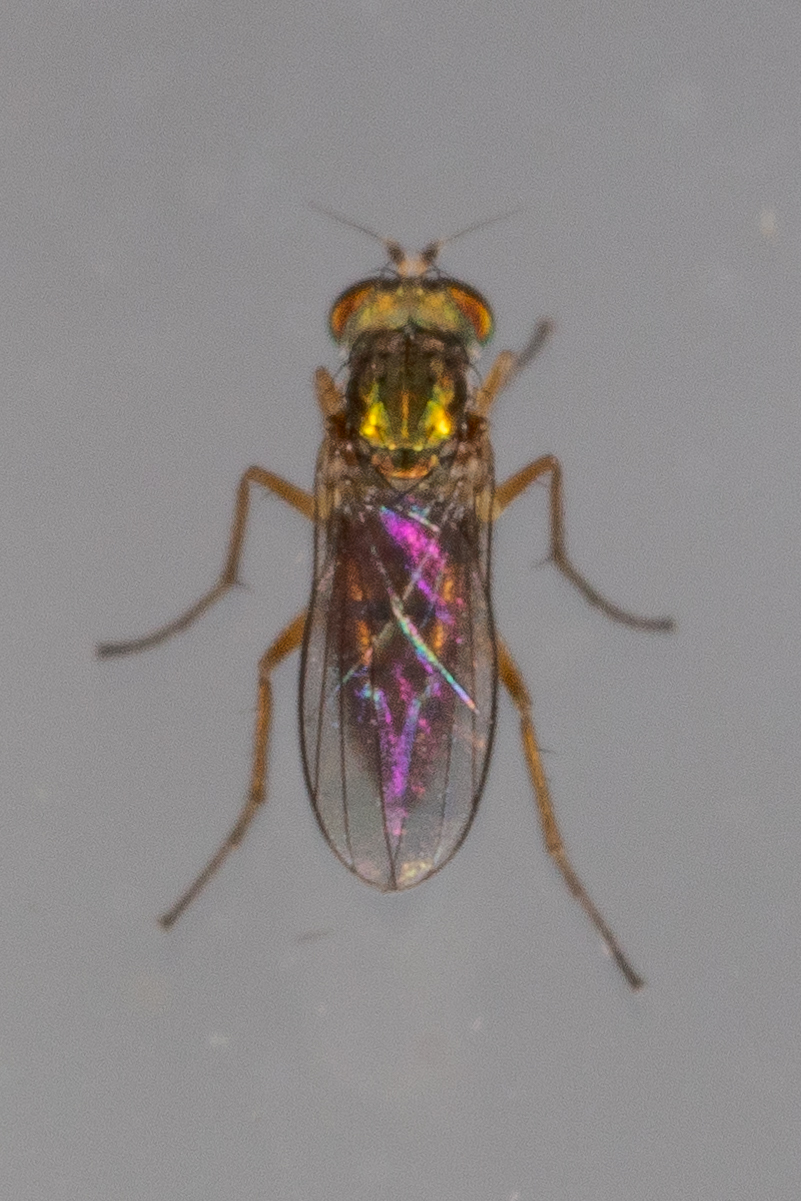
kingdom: Animalia
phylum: Arthropoda
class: Insecta
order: Diptera
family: Dolichopodidae
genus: Chrysotus
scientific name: Chrysotus picticornis
